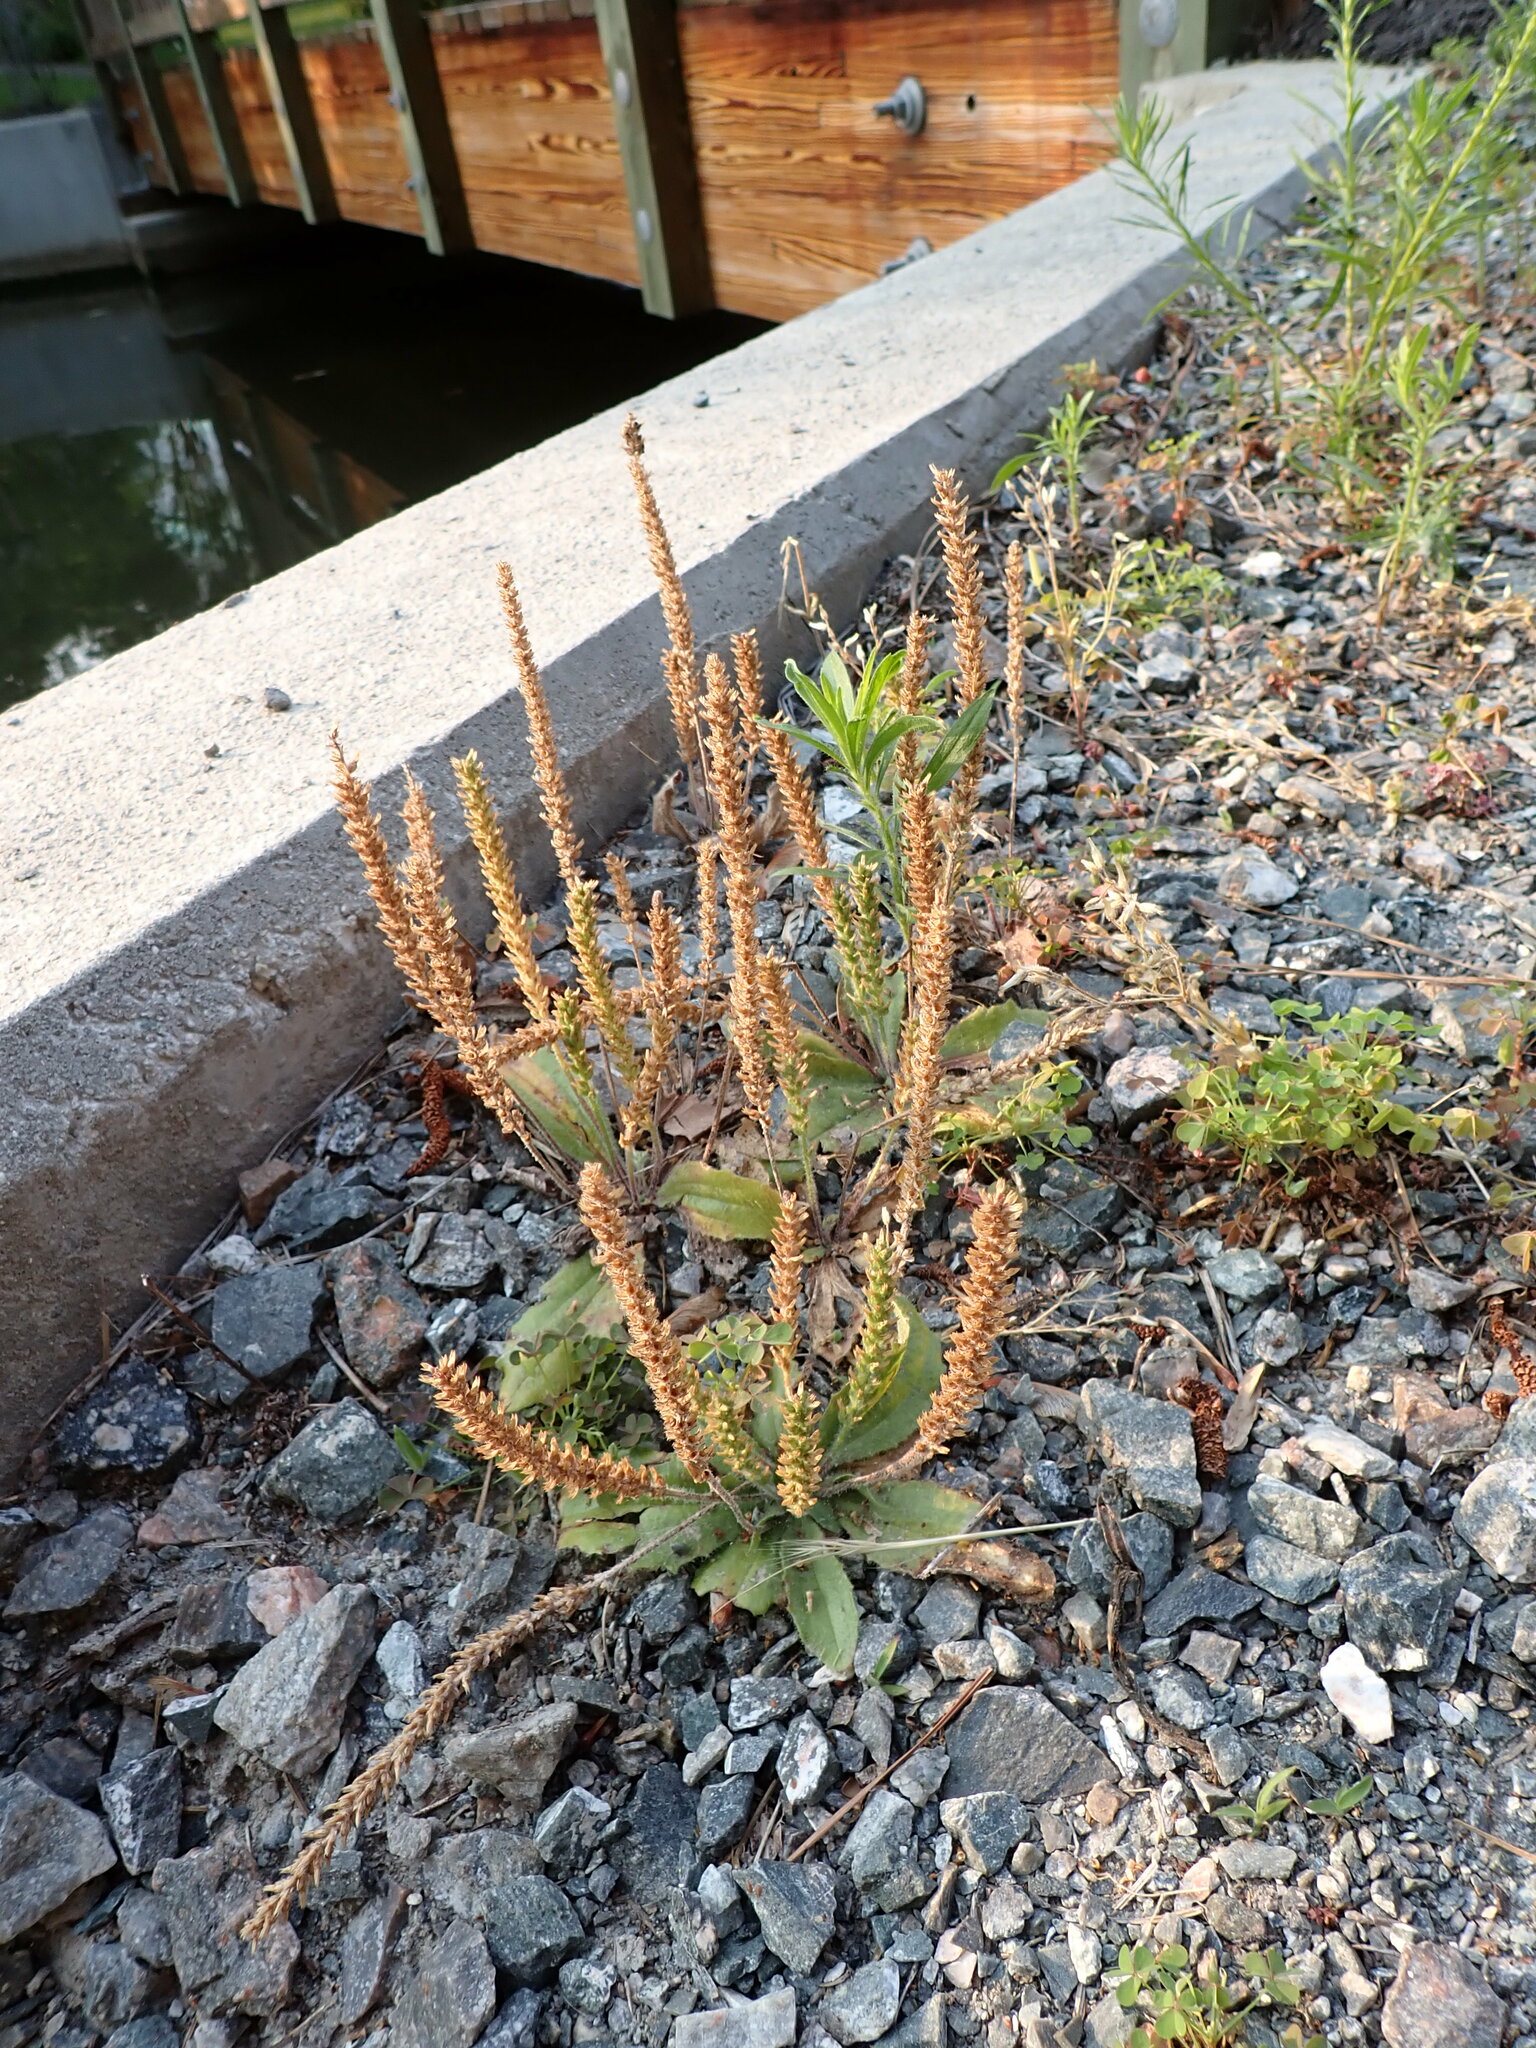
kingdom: Plantae
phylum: Tracheophyta
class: Magnoliopsida
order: Lamiales
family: Plantaginaceae
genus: Plantago
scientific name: Plantago virginica
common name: Hoary plantain
